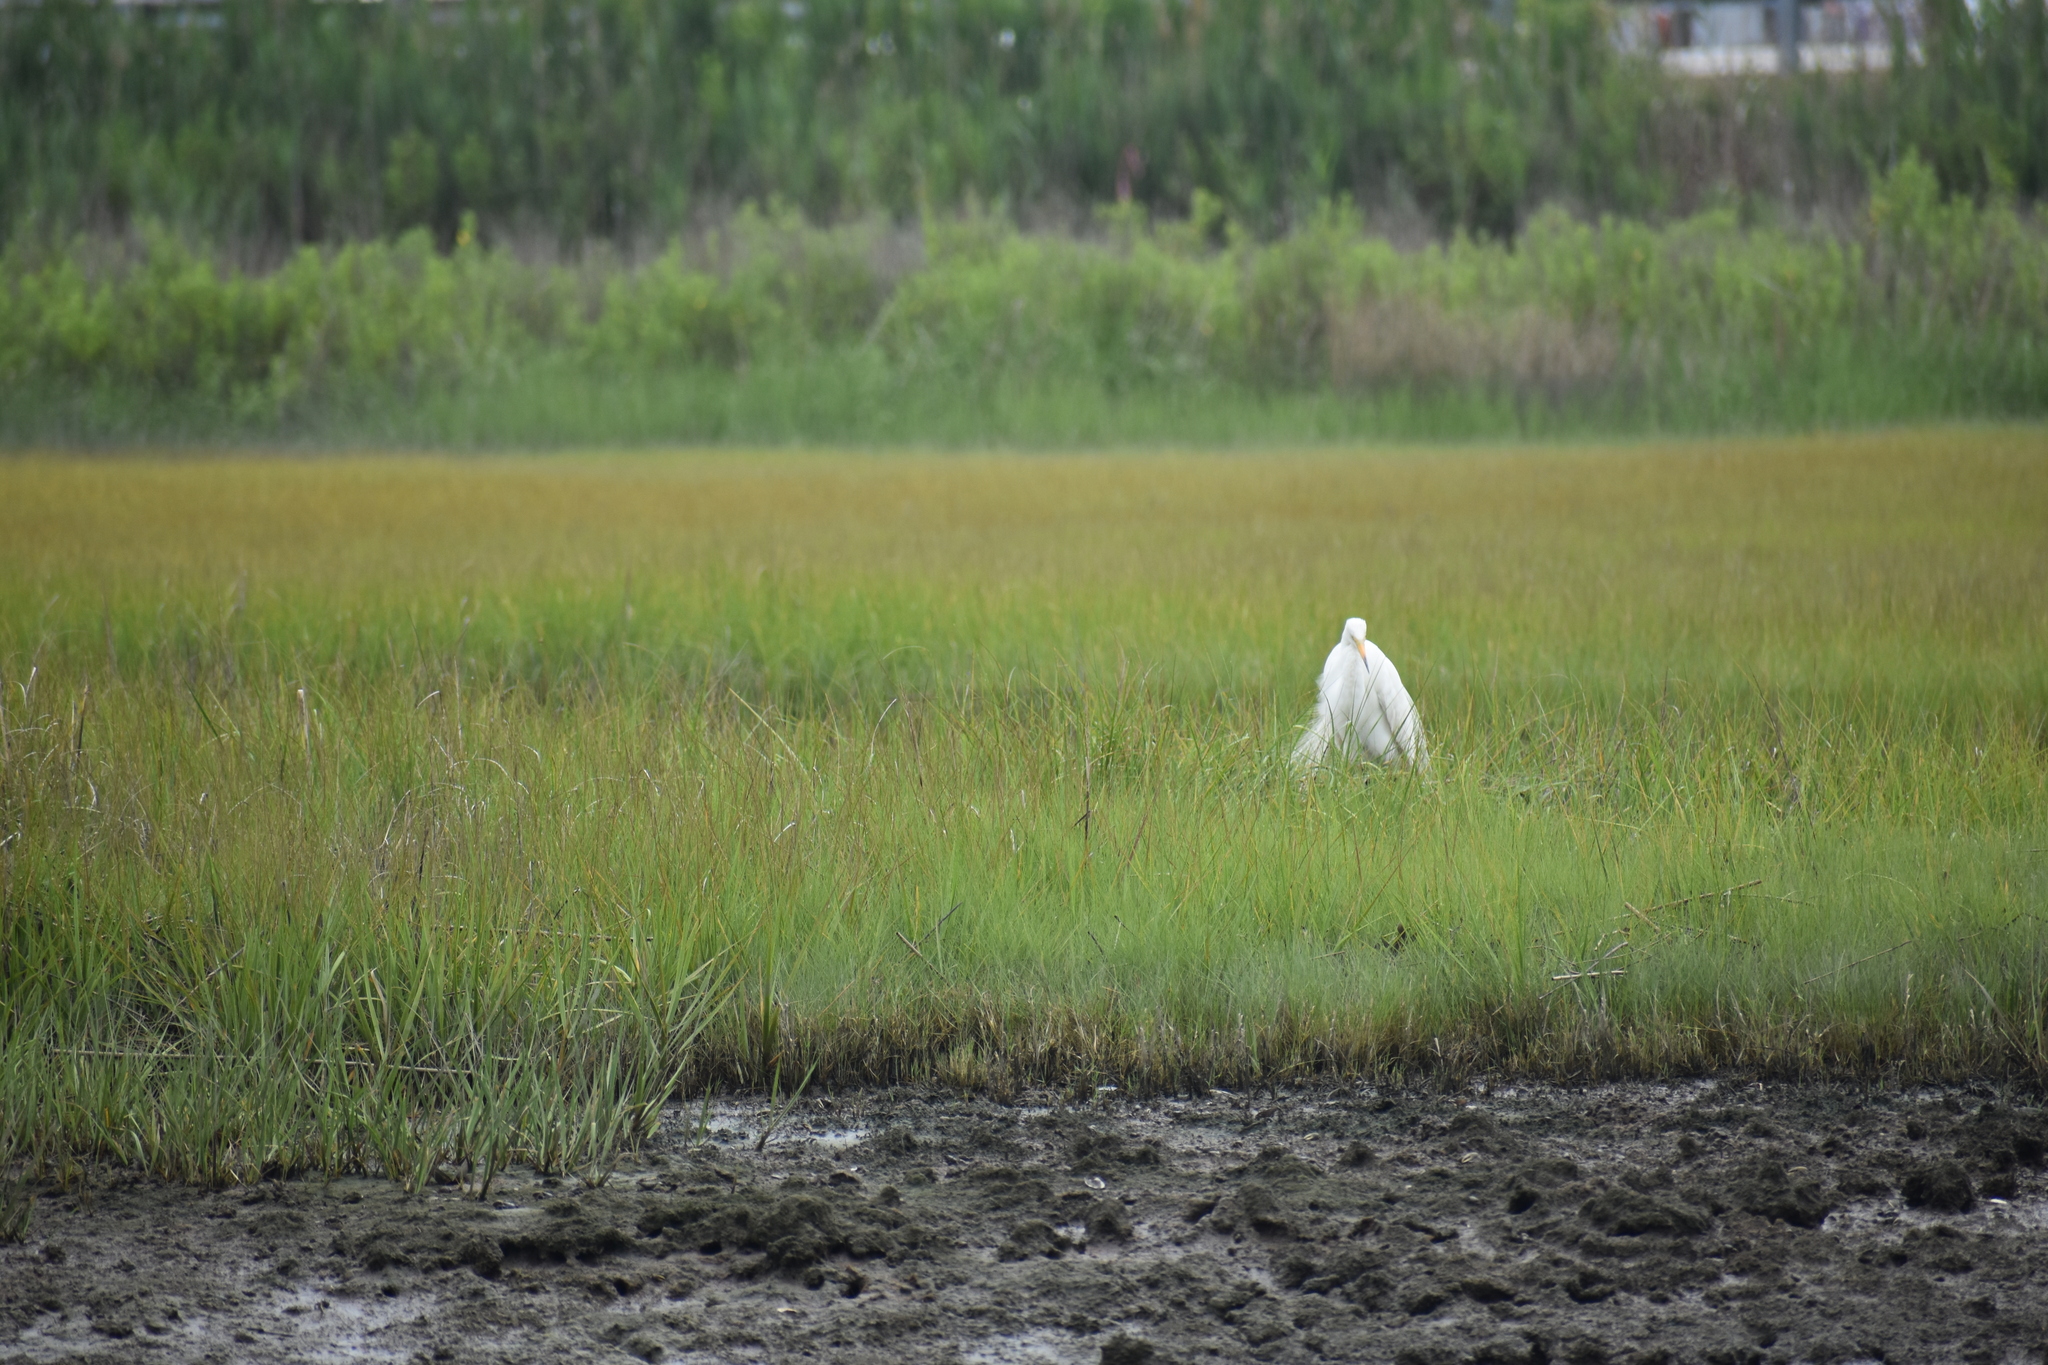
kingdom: Animalia
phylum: Chordata
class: Aves
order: Pelecaniformes
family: Ardeidae
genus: Ardea
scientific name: Ardea alba
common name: Great egret
